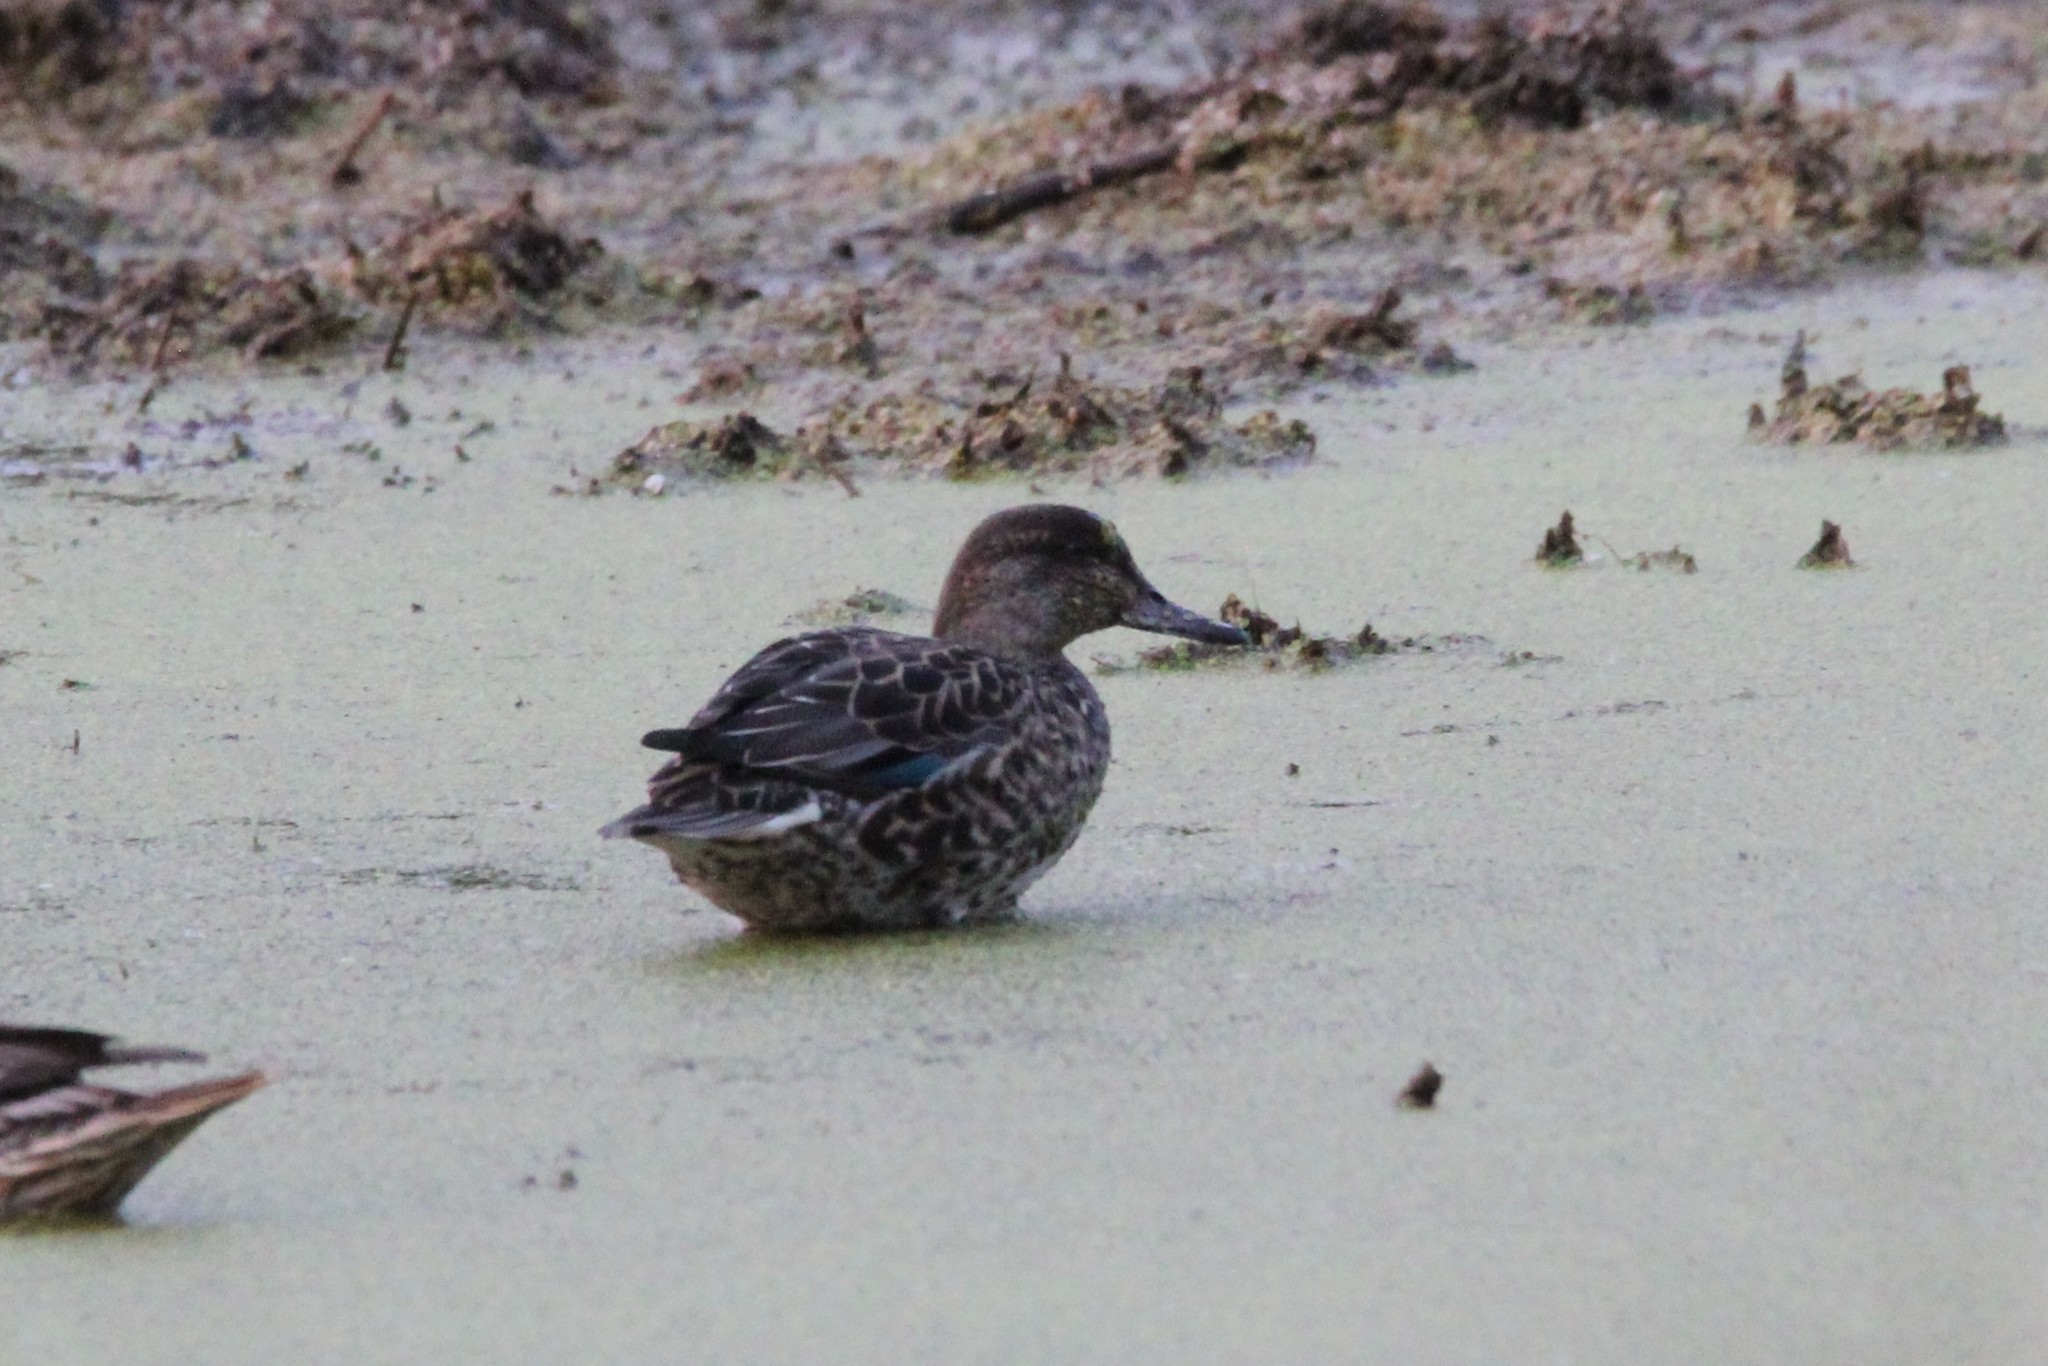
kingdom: Animalia
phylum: Chordata
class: Aves
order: Anseriformes
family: Anatidae
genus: Anas
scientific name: Anas crecca
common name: Eurasian teal
